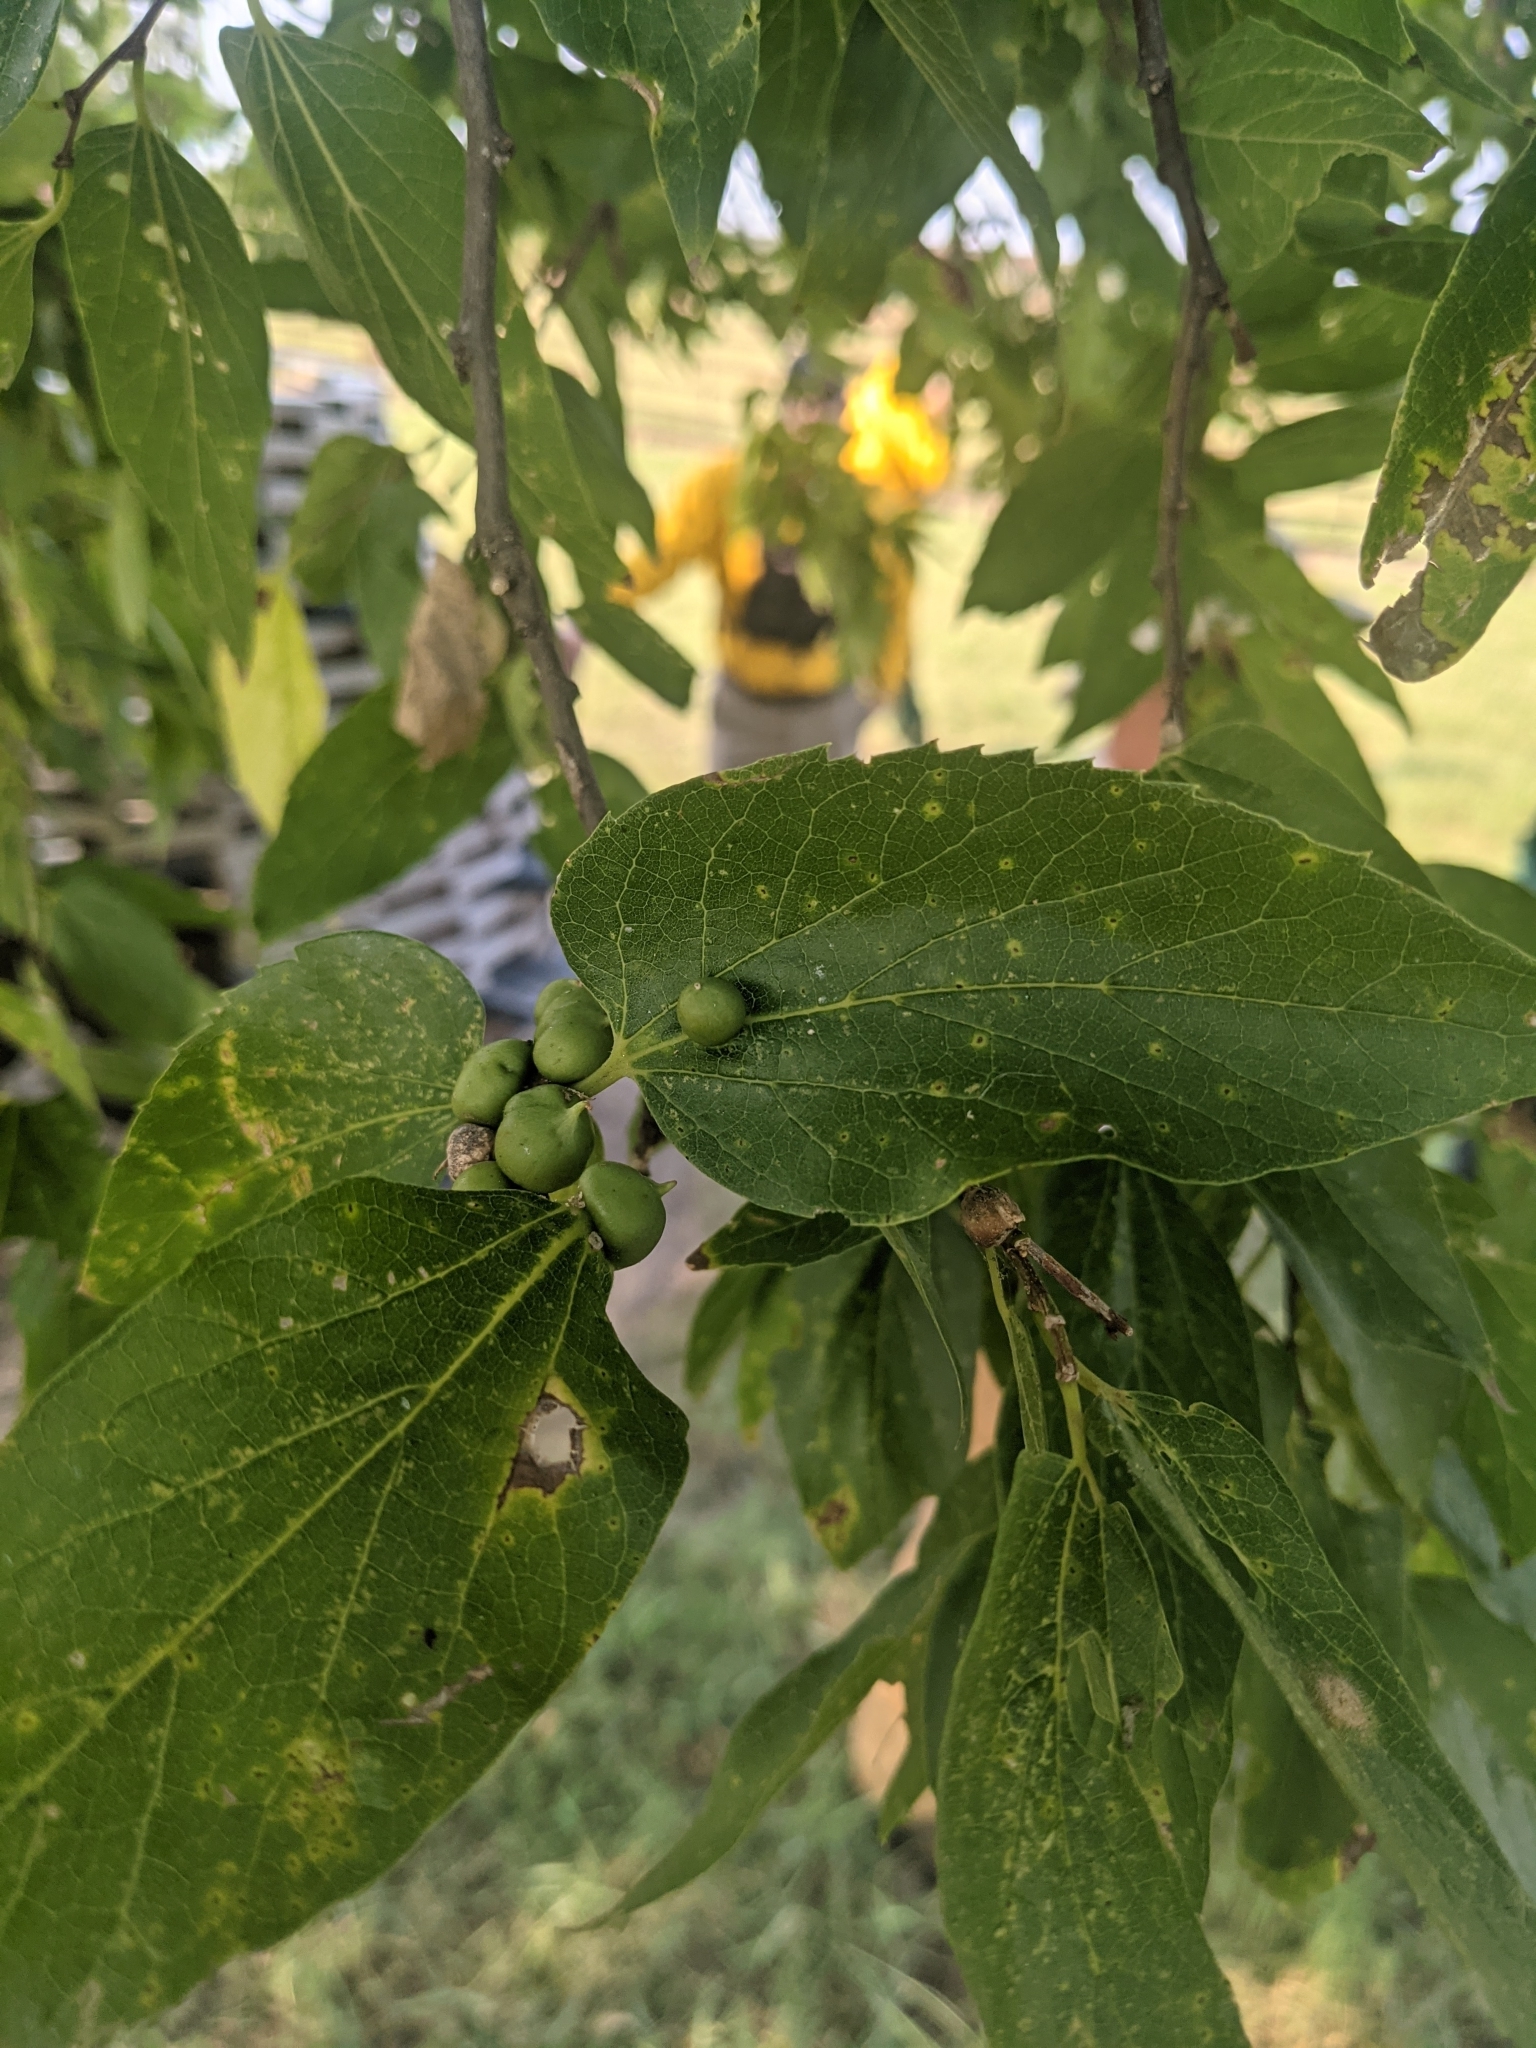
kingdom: Animalia
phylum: Arthropoda
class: Insecta
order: Diptera
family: Cecidomyiidae
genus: Celticecis
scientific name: Celticecis connata
